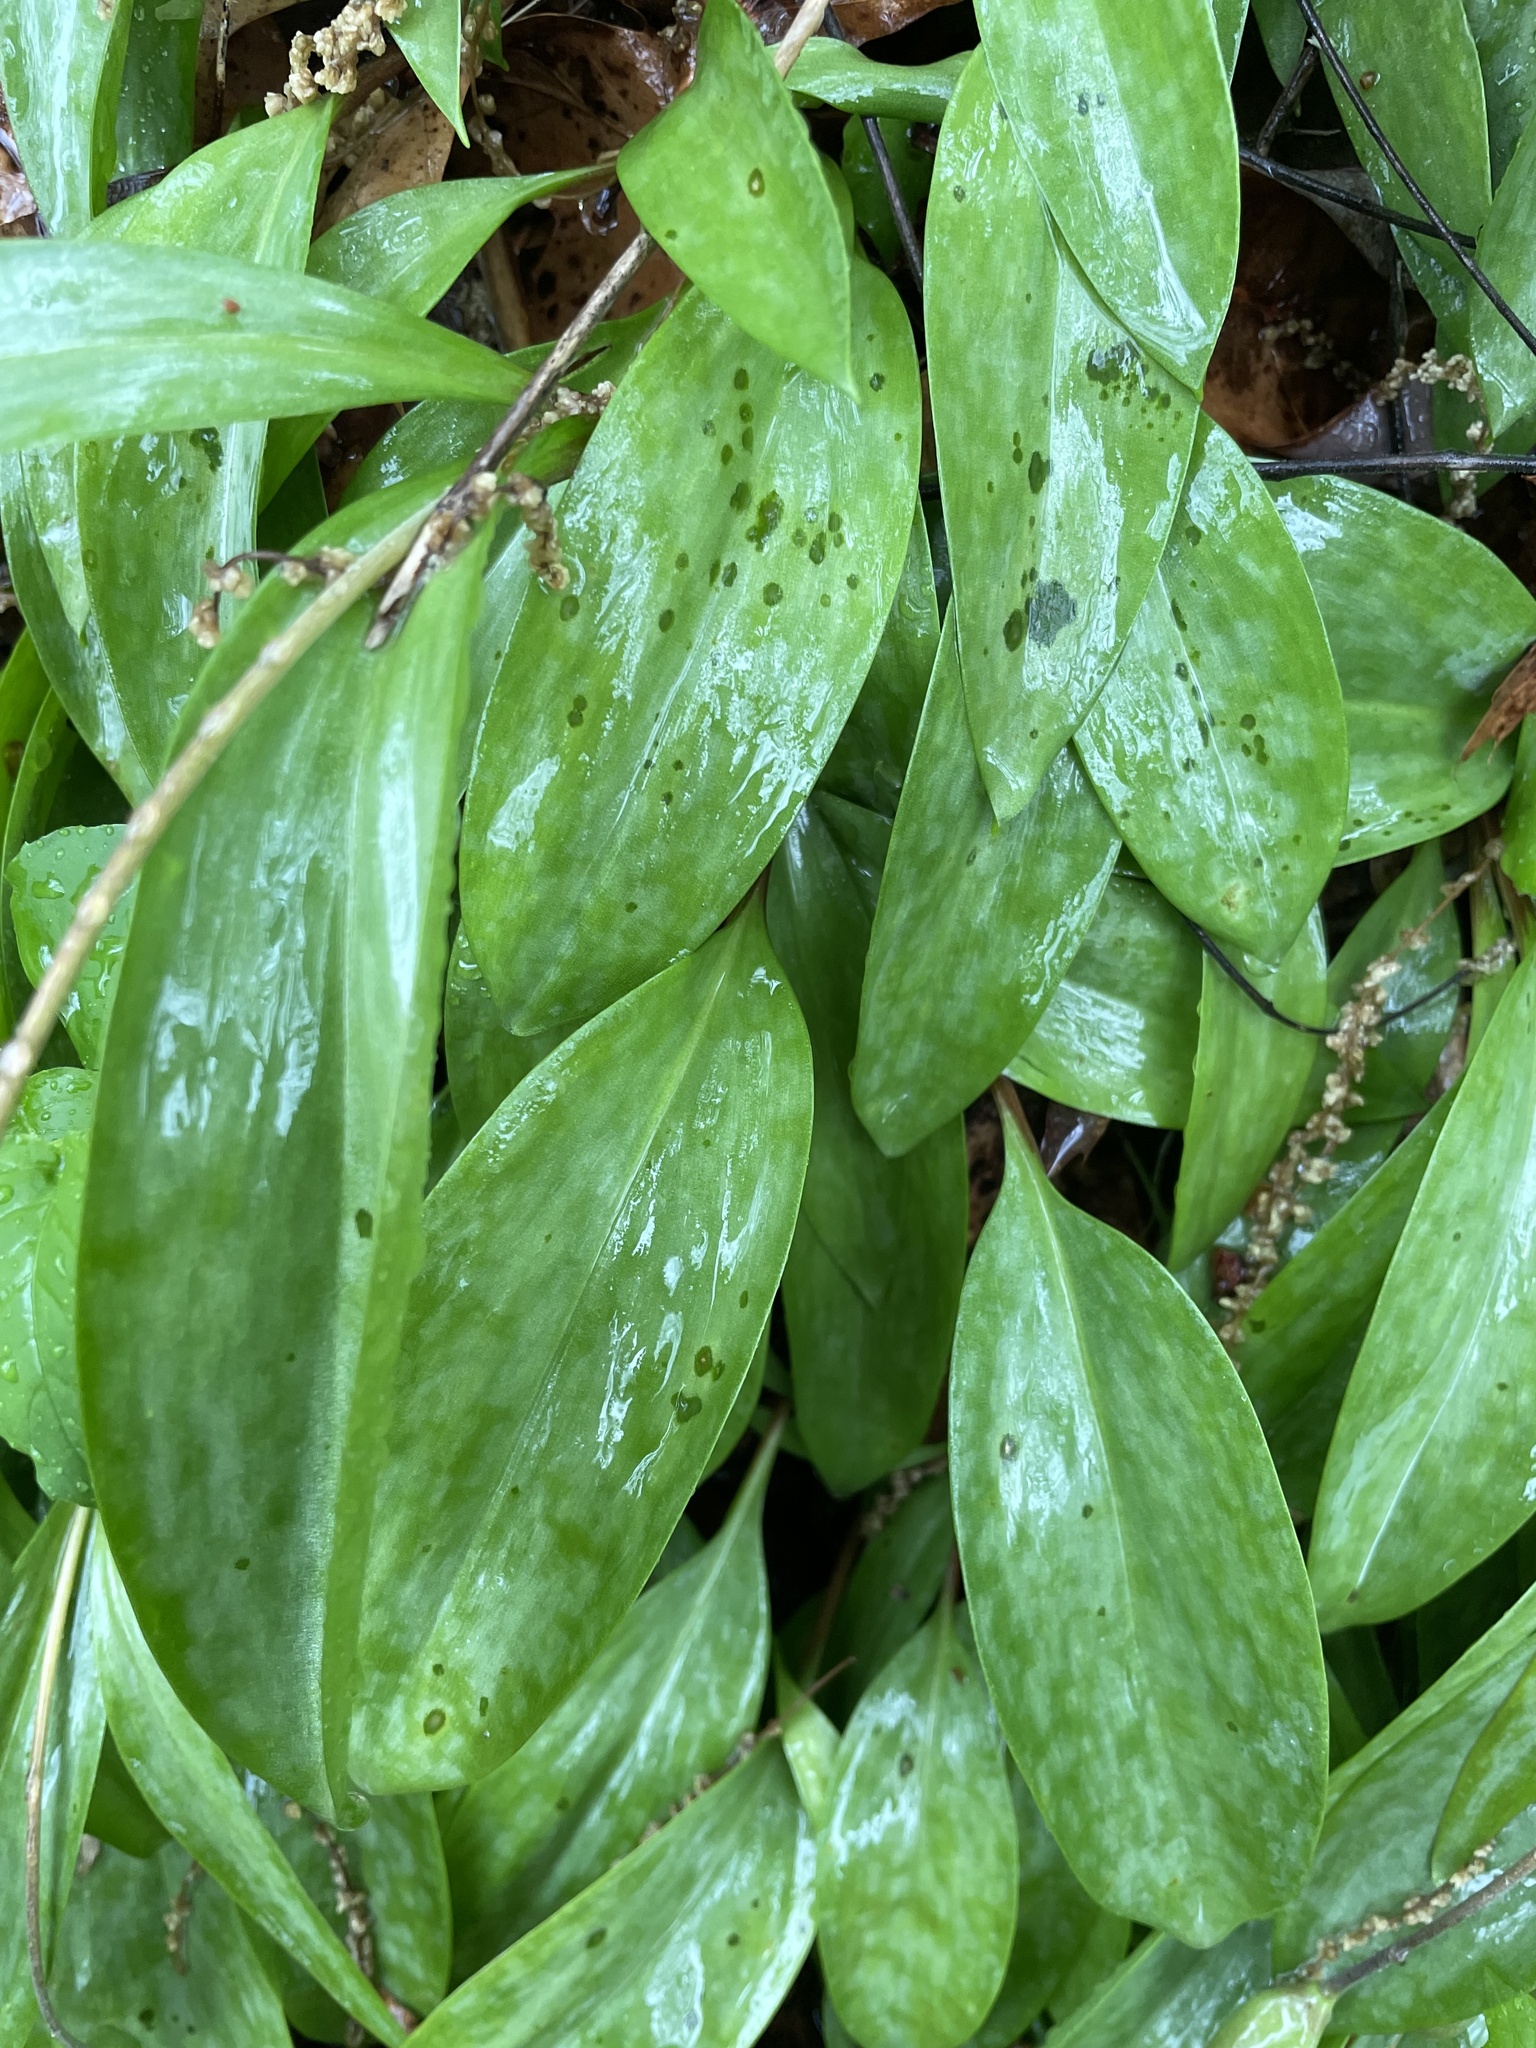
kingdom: Plantae
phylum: Tracheophyta
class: Liliopsida
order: Liliales
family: Liliaceae
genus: Erythronium
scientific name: Erythronium americanum
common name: Yellow adder's-tongue
